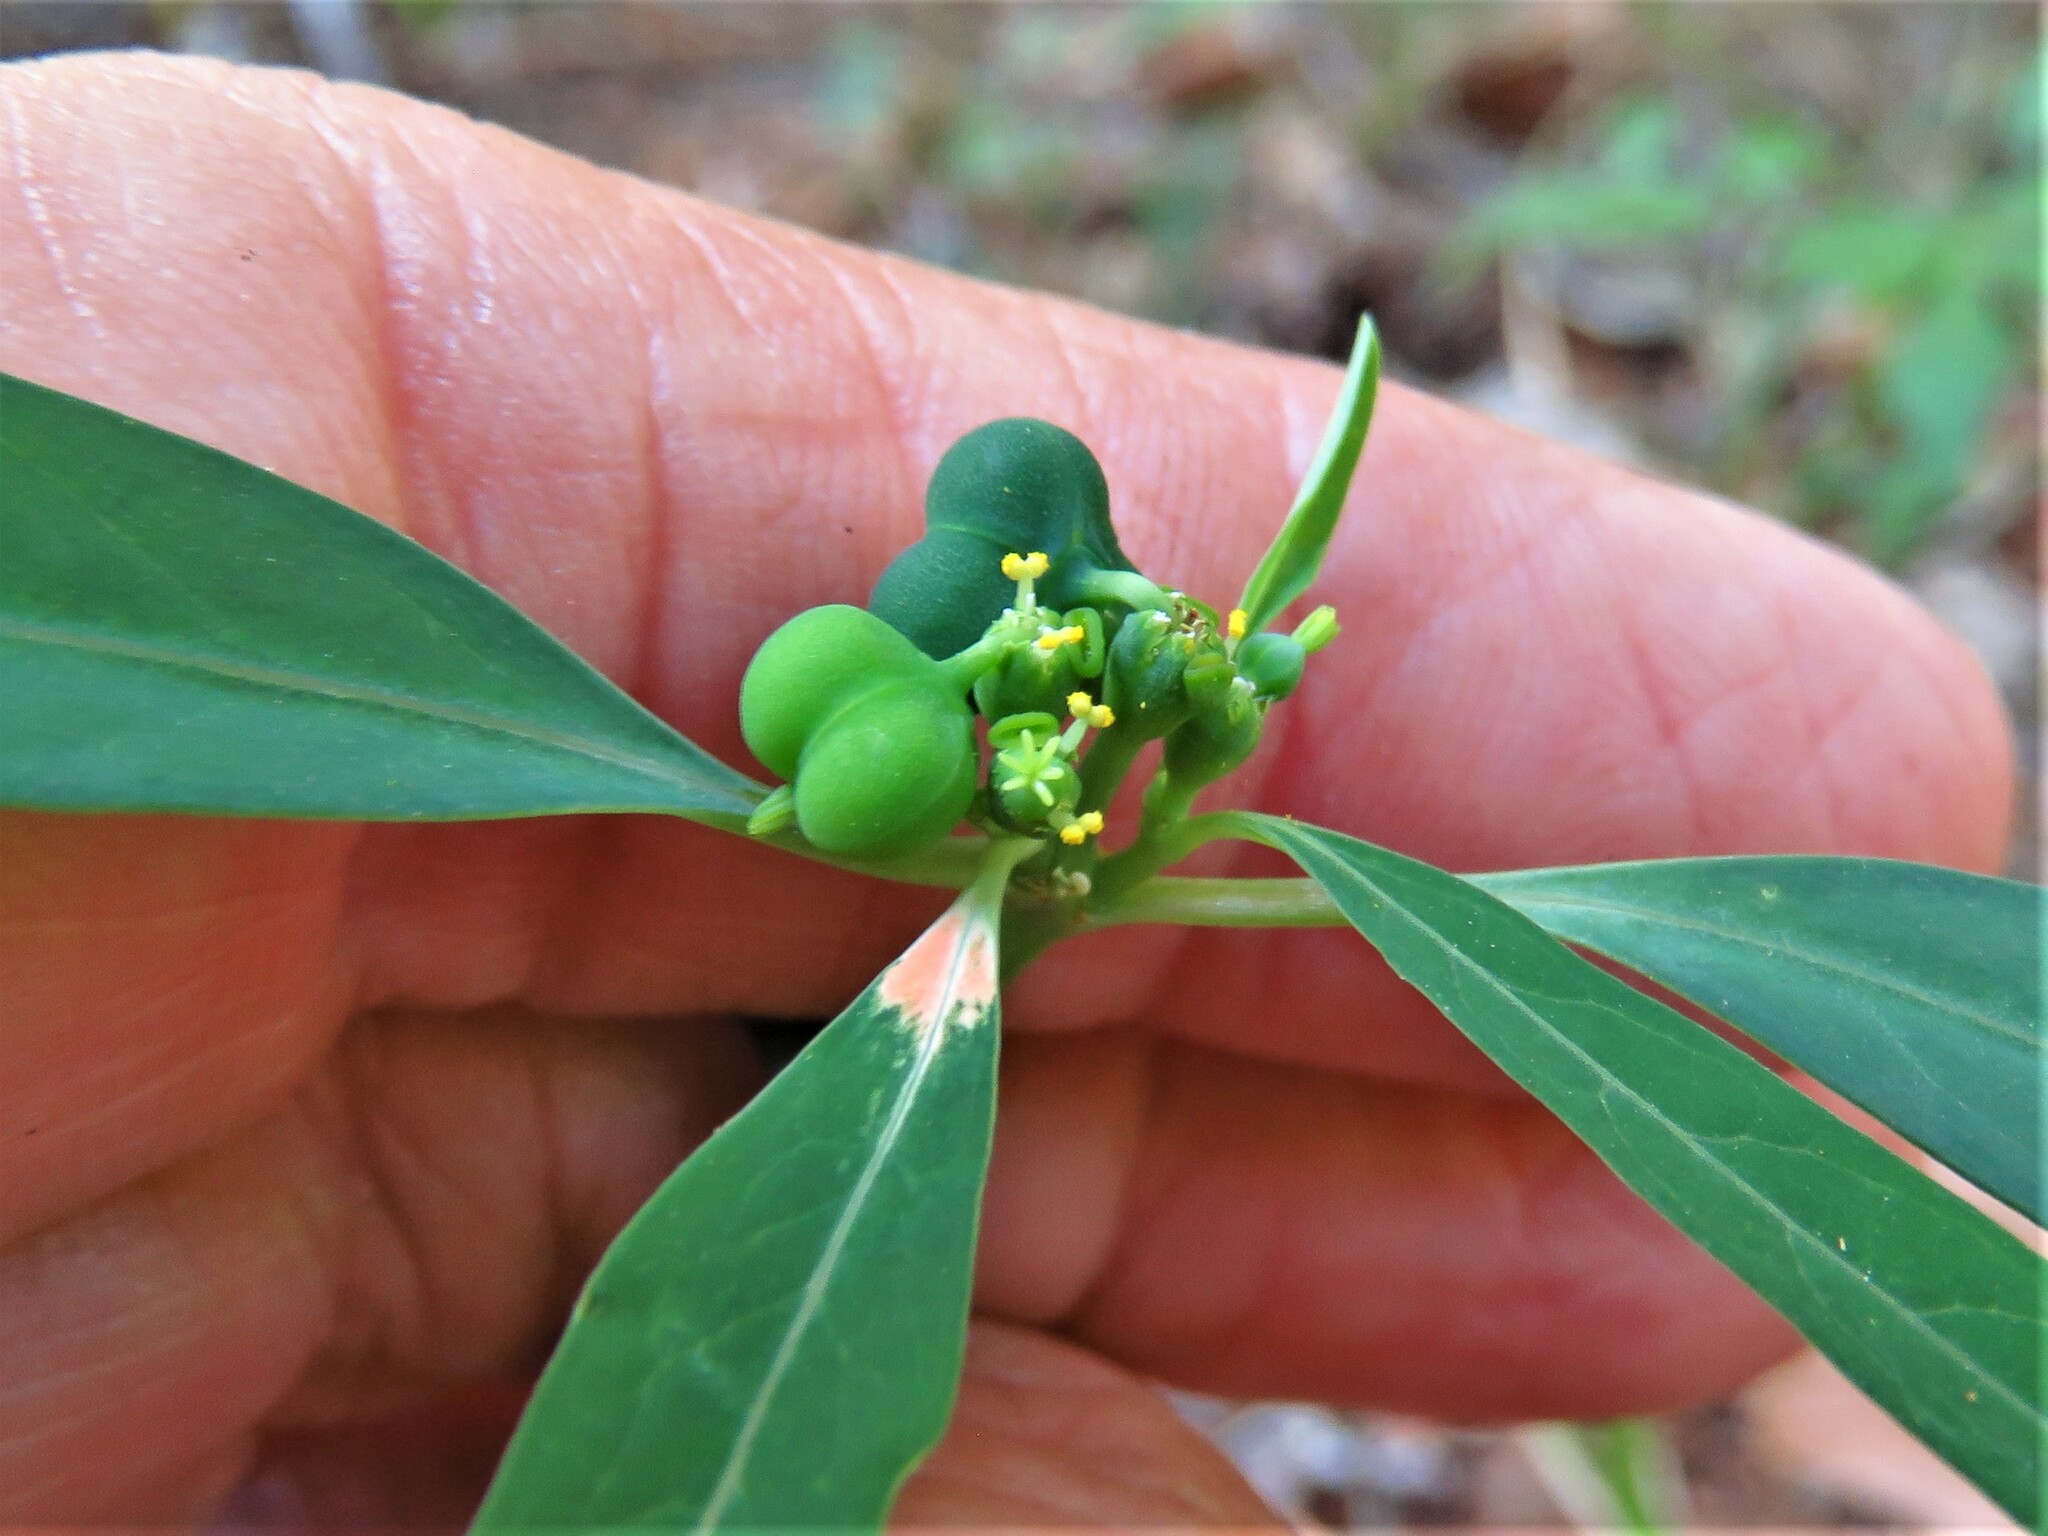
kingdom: Plantae
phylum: Tracheophyta
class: Magnoliopsida
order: Malpighiales
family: Euphorbiaceae
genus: Euphorbia
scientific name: Euphorbia heterophylla
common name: Mexican fireplant
